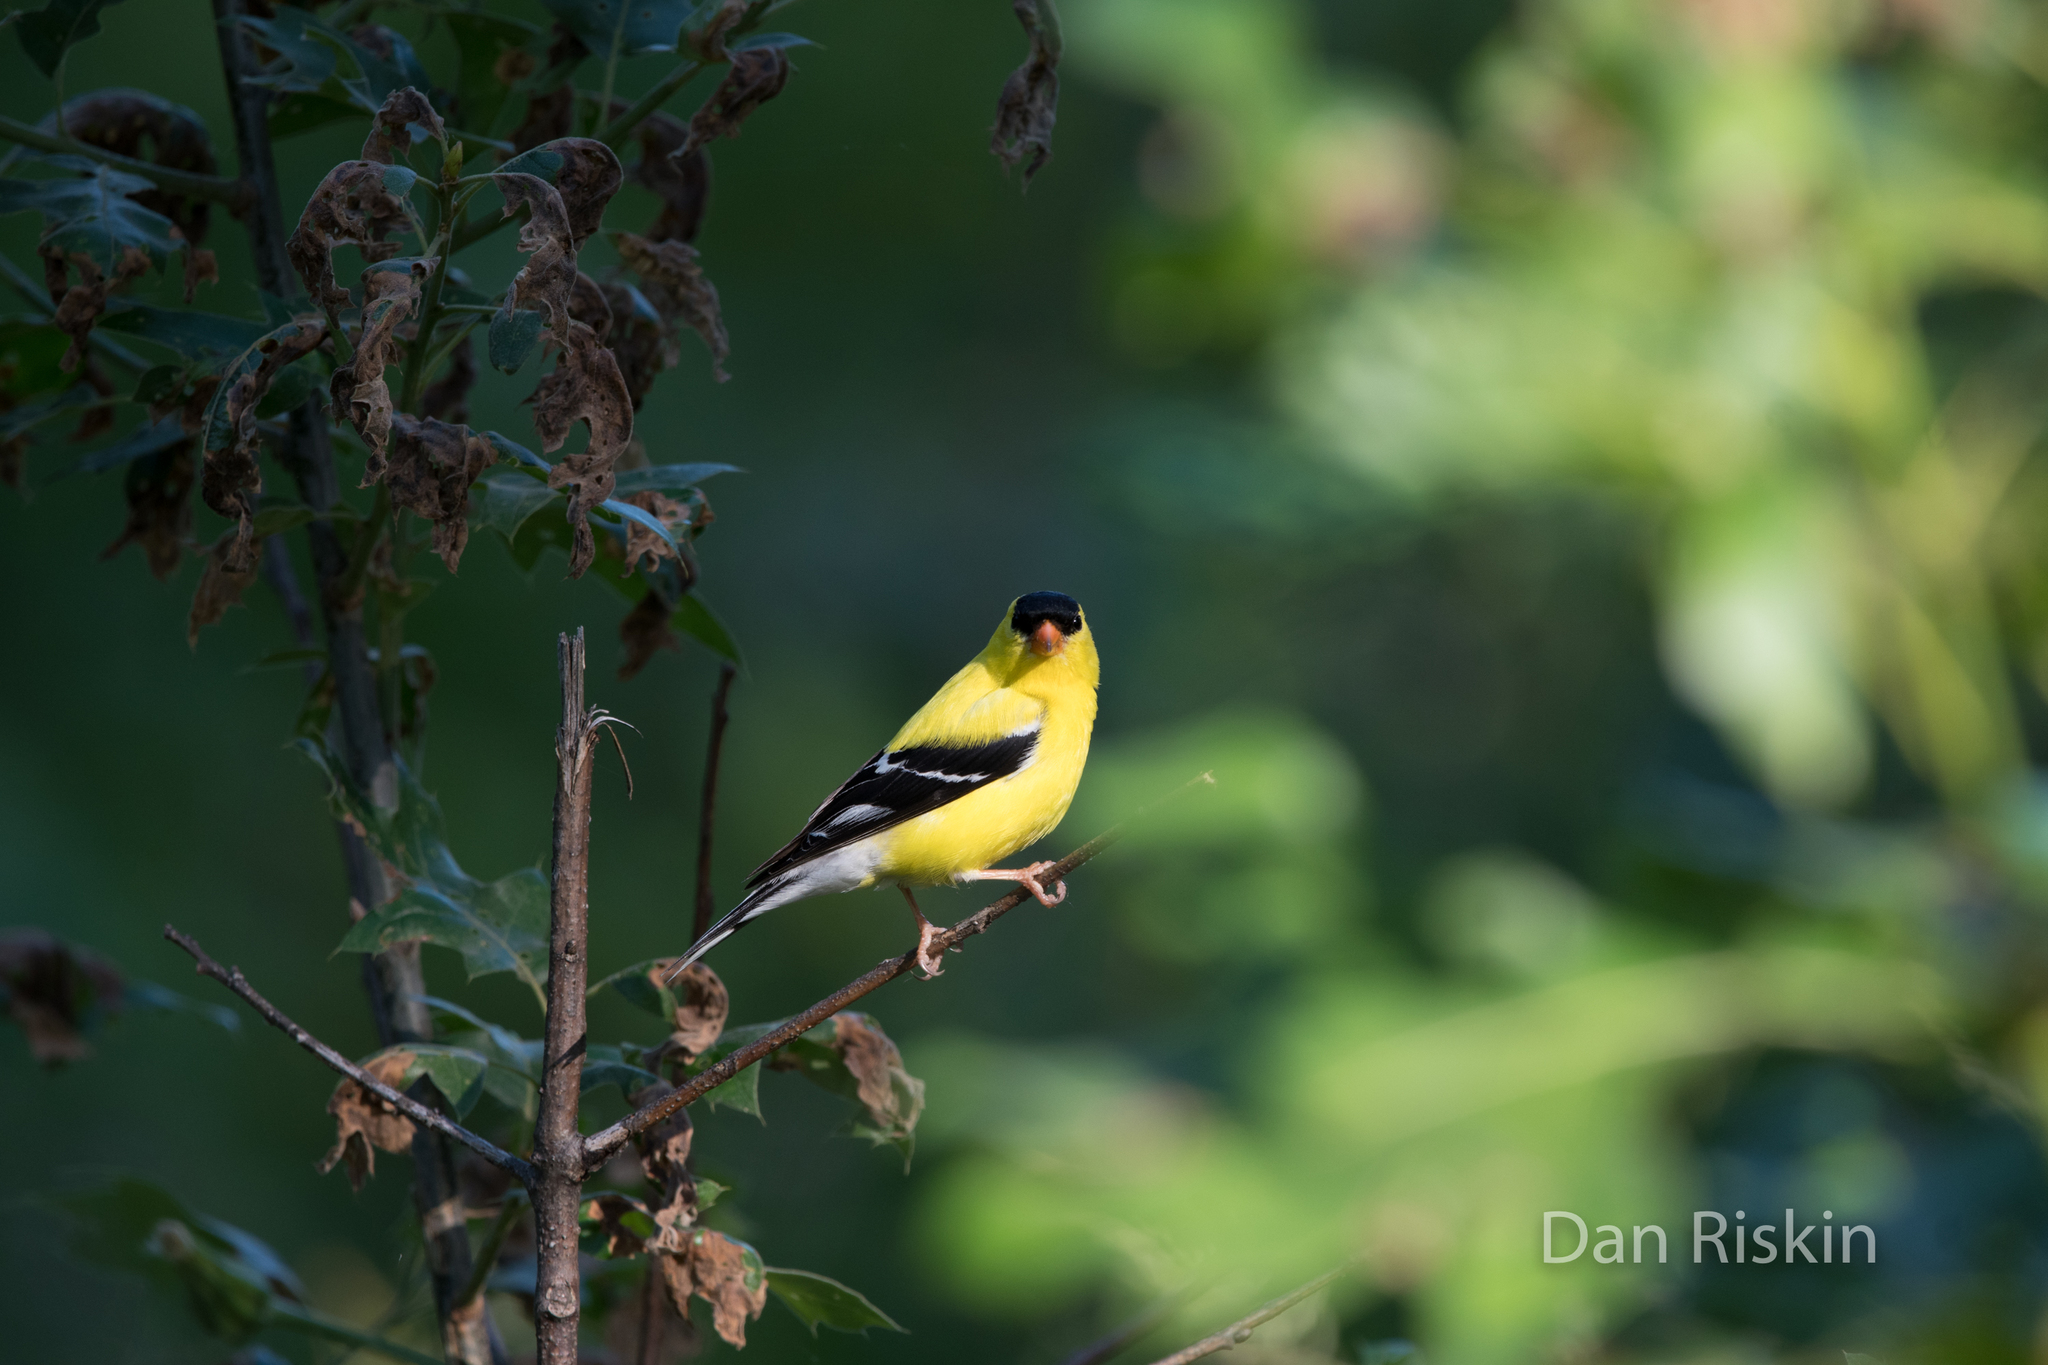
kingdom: Animalia
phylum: Chordata
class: Aves
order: Passeriformes
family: Fringillidae
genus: Spinus
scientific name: Spinus tristis
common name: American goldfinch
